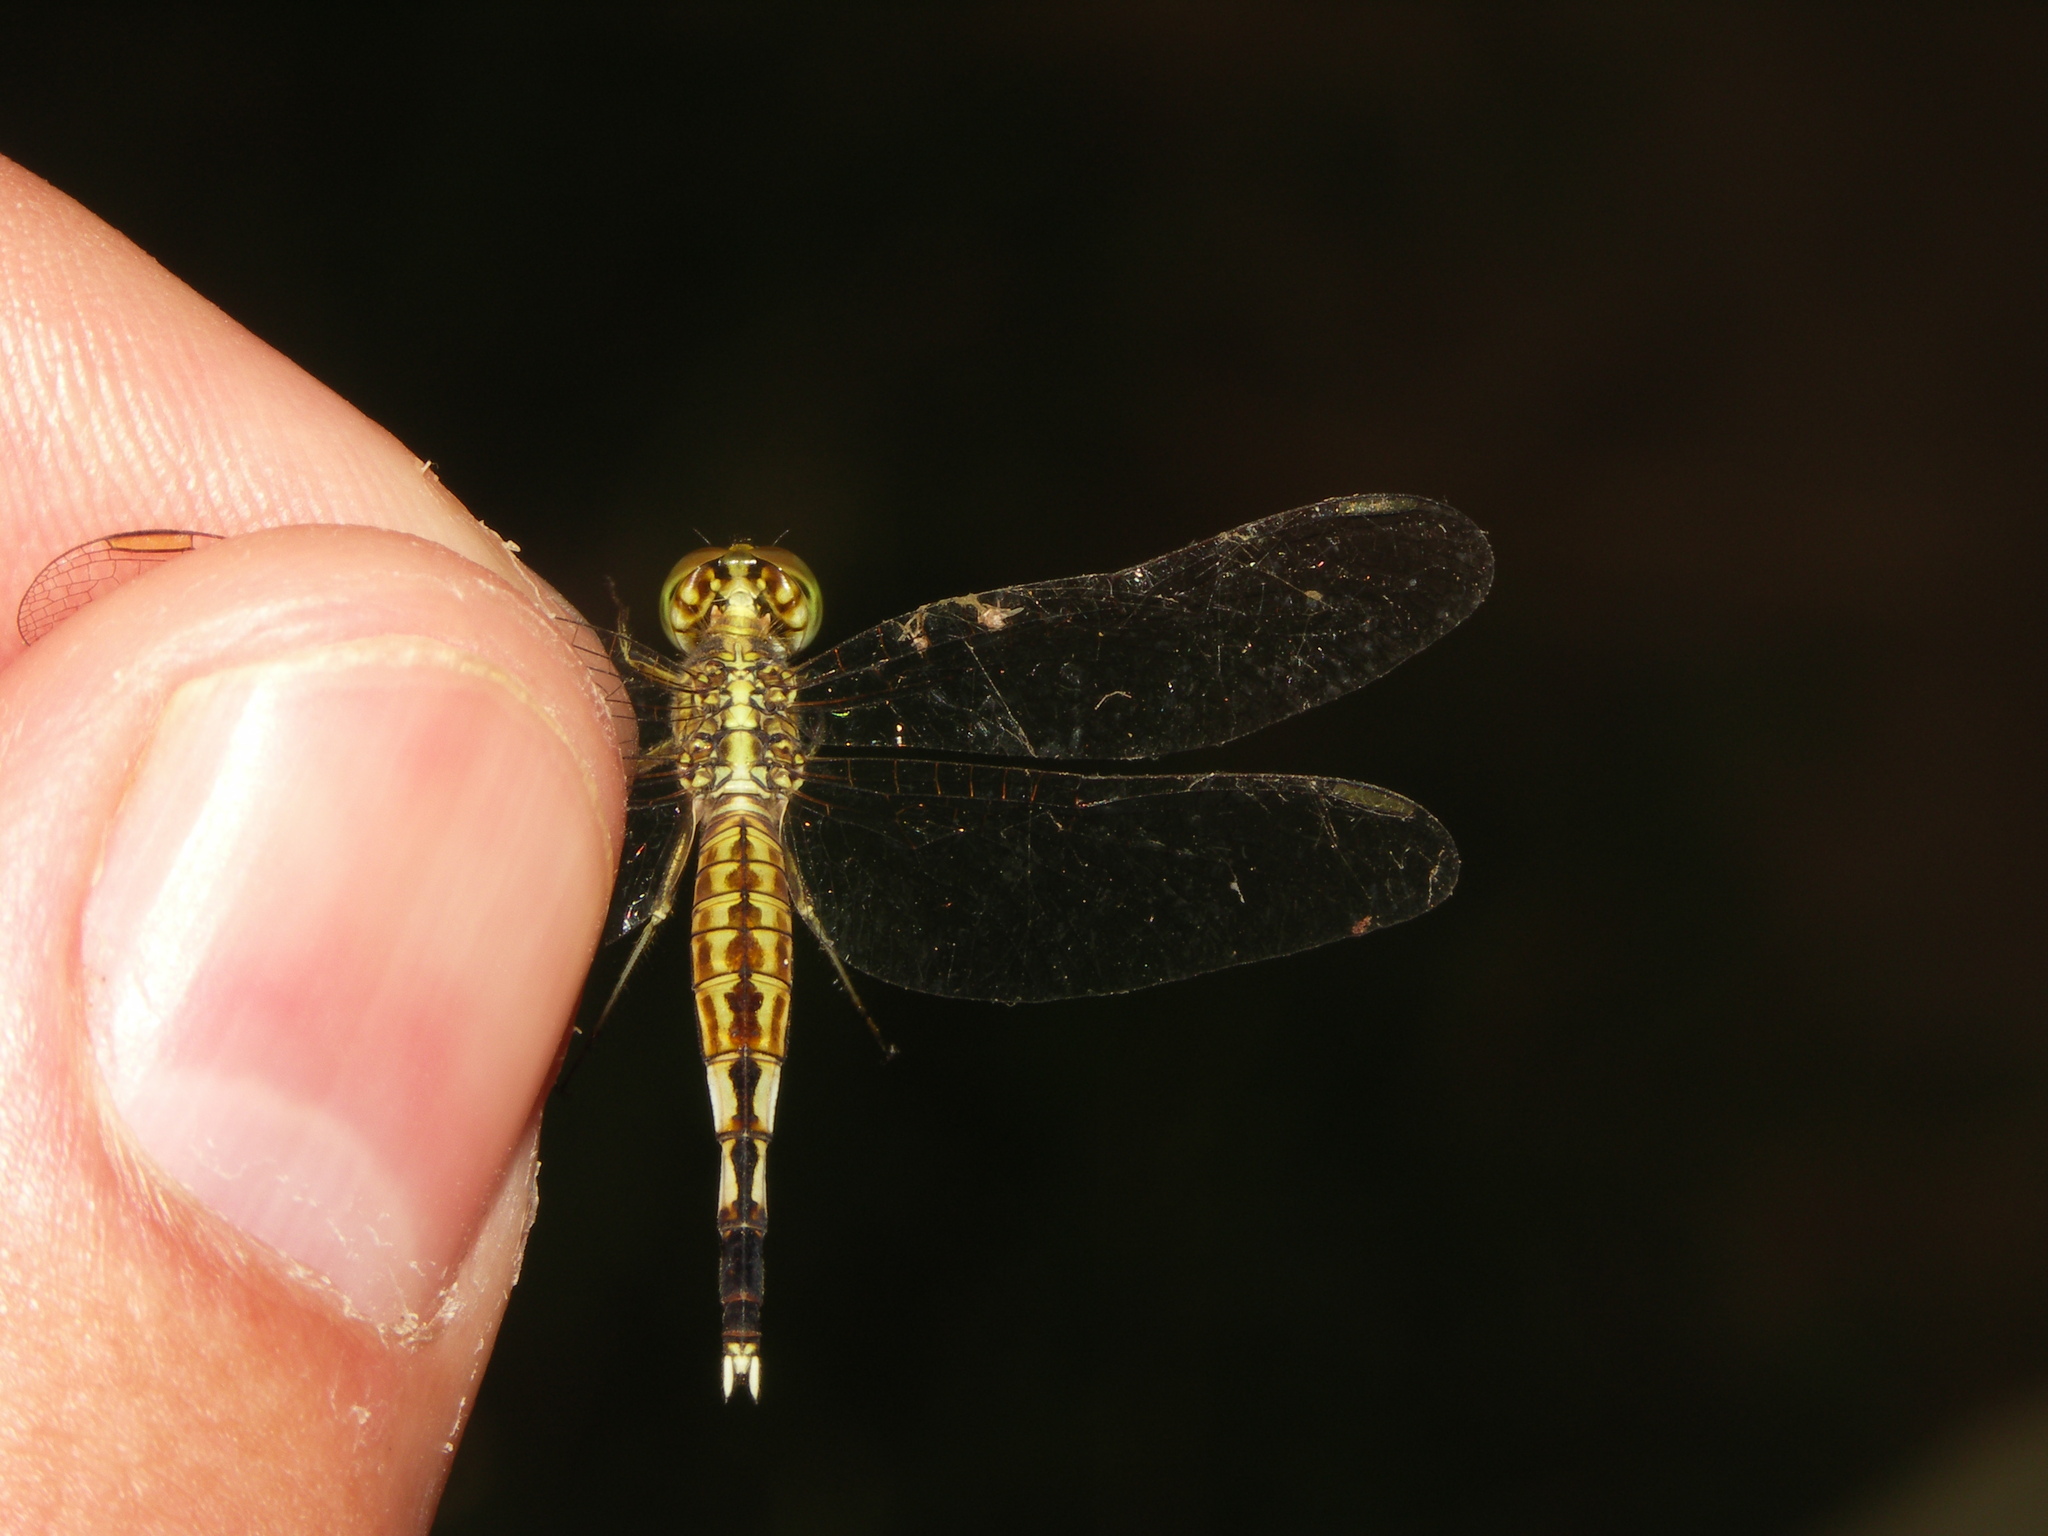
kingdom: Animalia
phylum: Arthropoda
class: Insecta
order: Odonata
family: Libellulidae
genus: Acisoma
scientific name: Acisoma panorpoides
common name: Asian pintail
